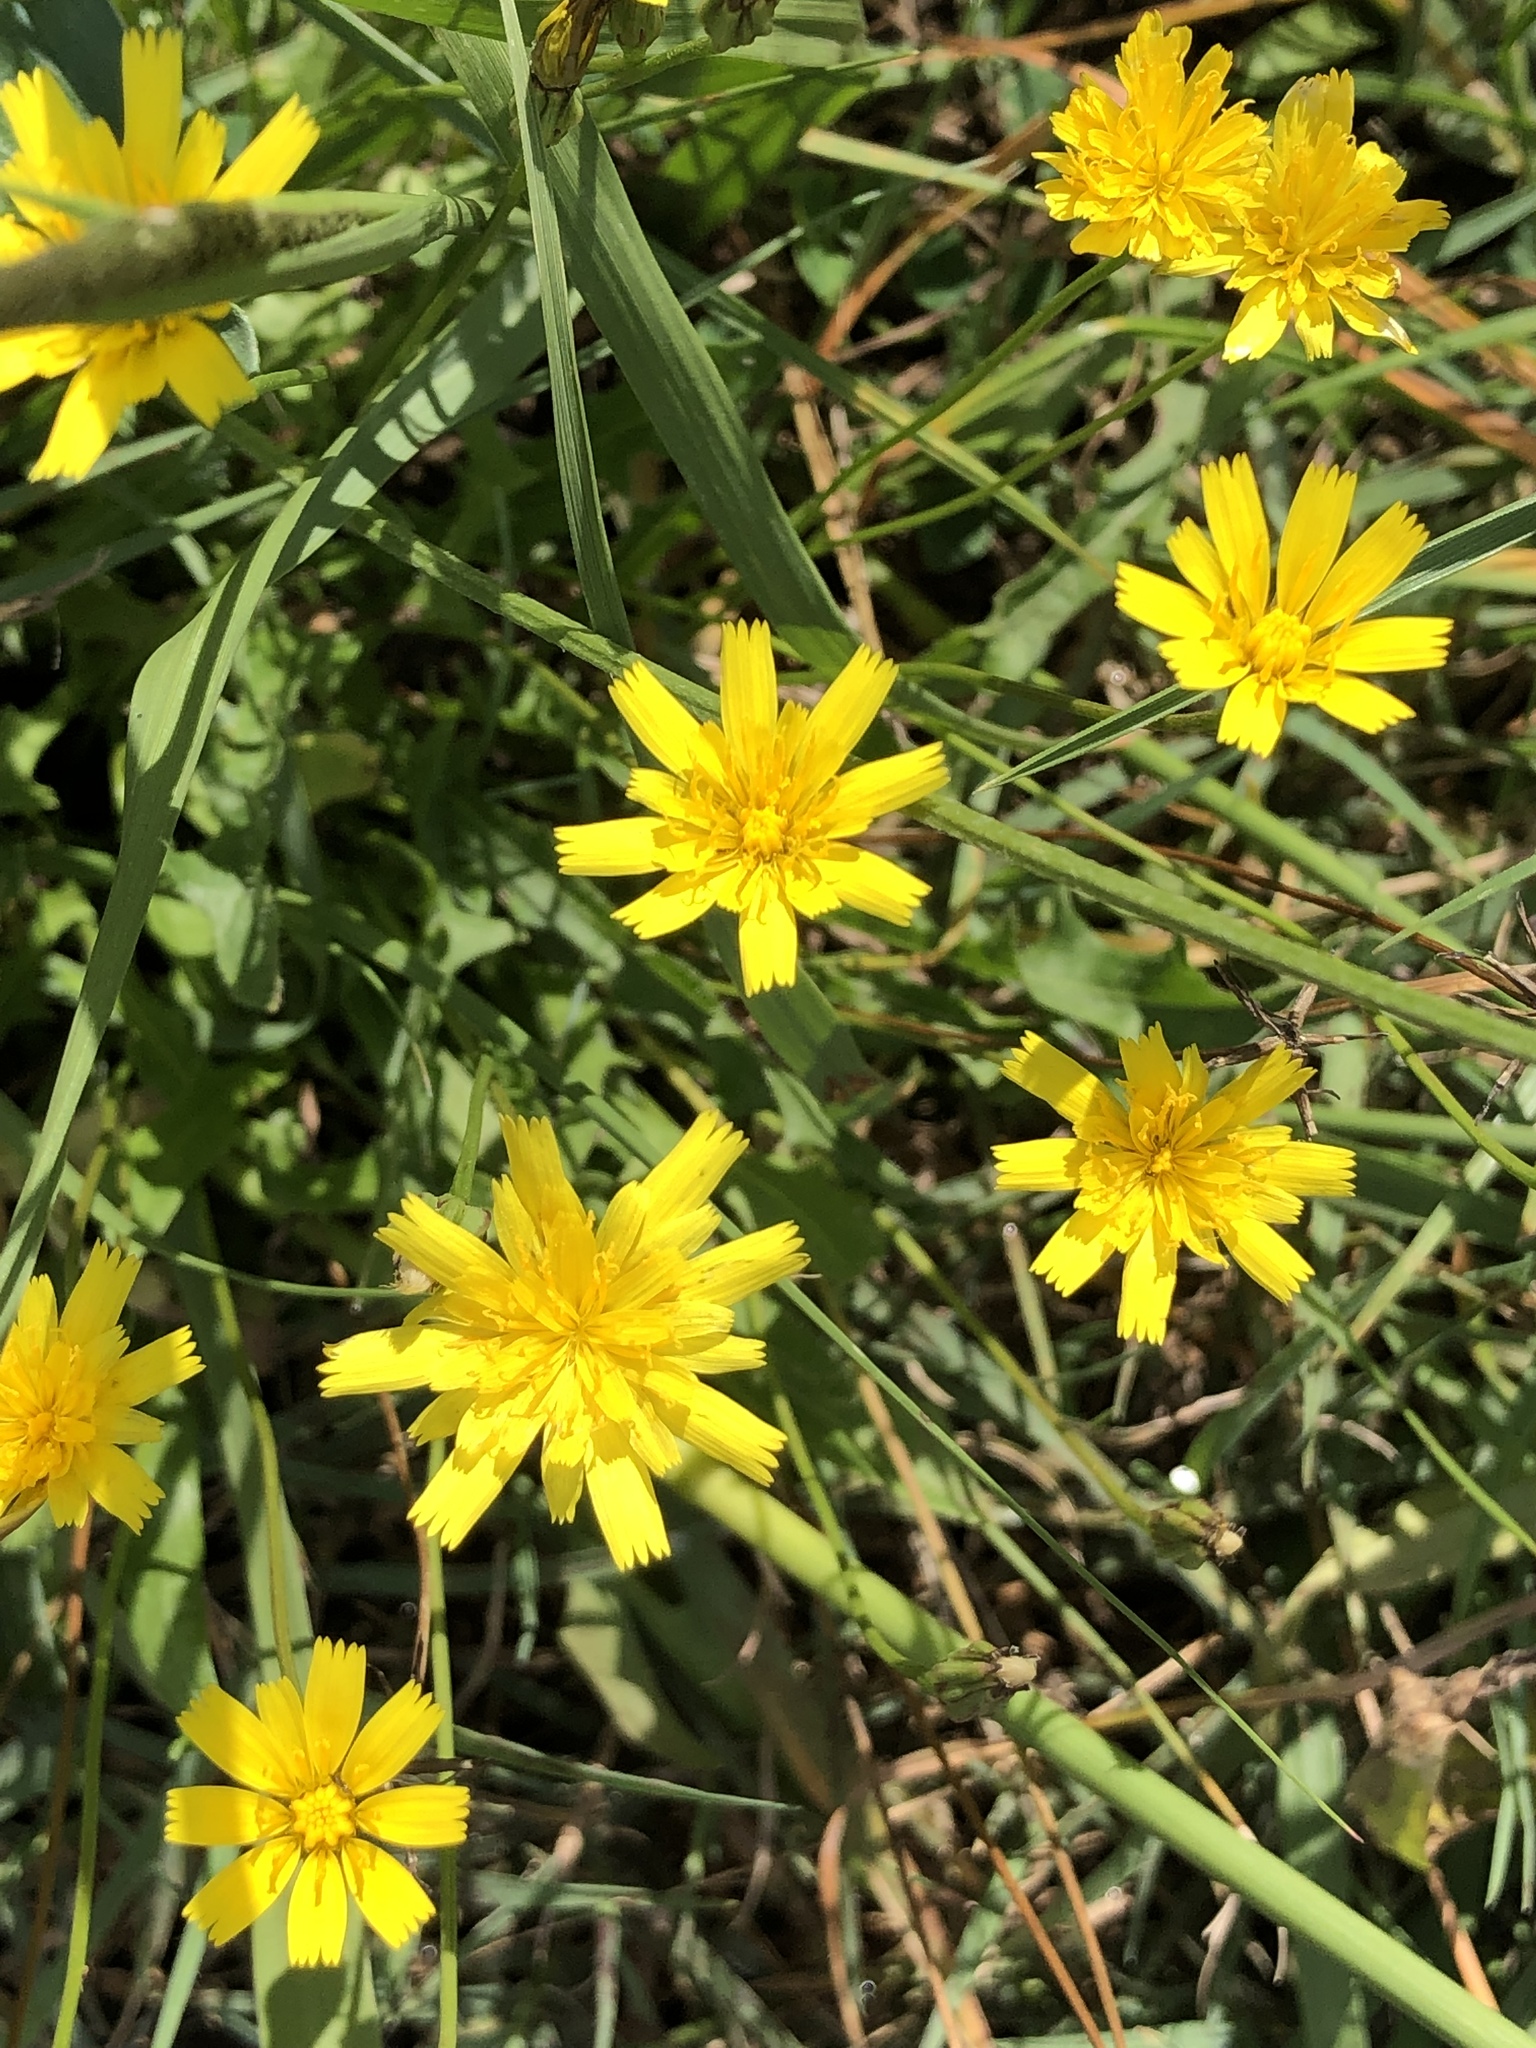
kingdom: Plantae
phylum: Tracheophyta
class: Magnoliopsida
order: Asterales
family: Asteraceae
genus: Hypochaeris
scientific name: Hypochaeris radicata
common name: Flatweed
